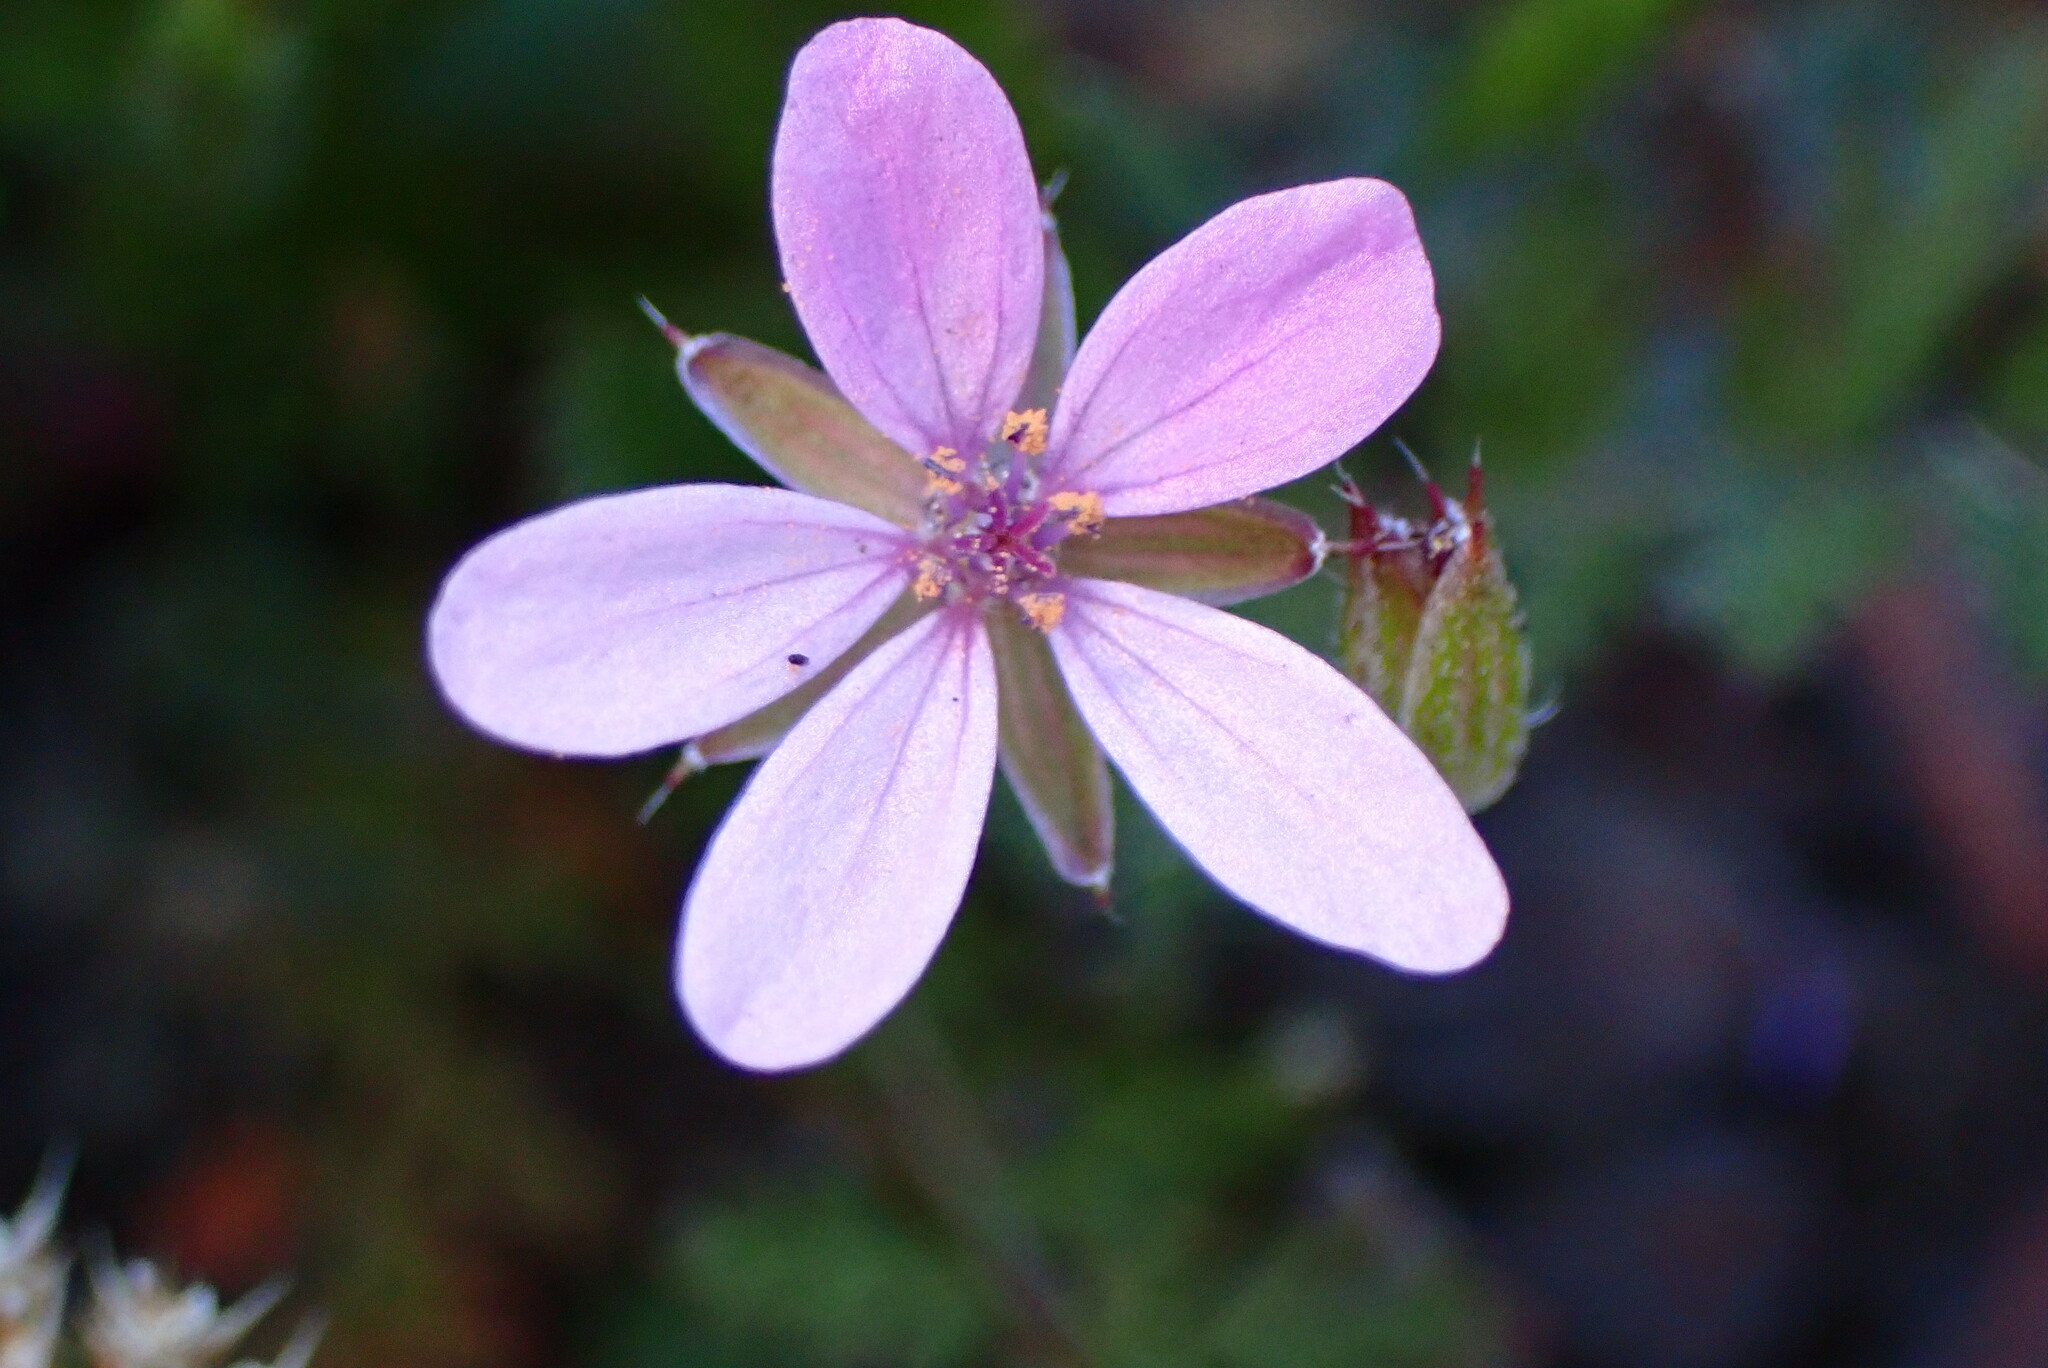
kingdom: Plantae
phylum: Tracheophyta
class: Magnoliopsida
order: Geraniales
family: Geraniaceae
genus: Erodium
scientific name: Erodium cicutarium
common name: Common stork's-bill
